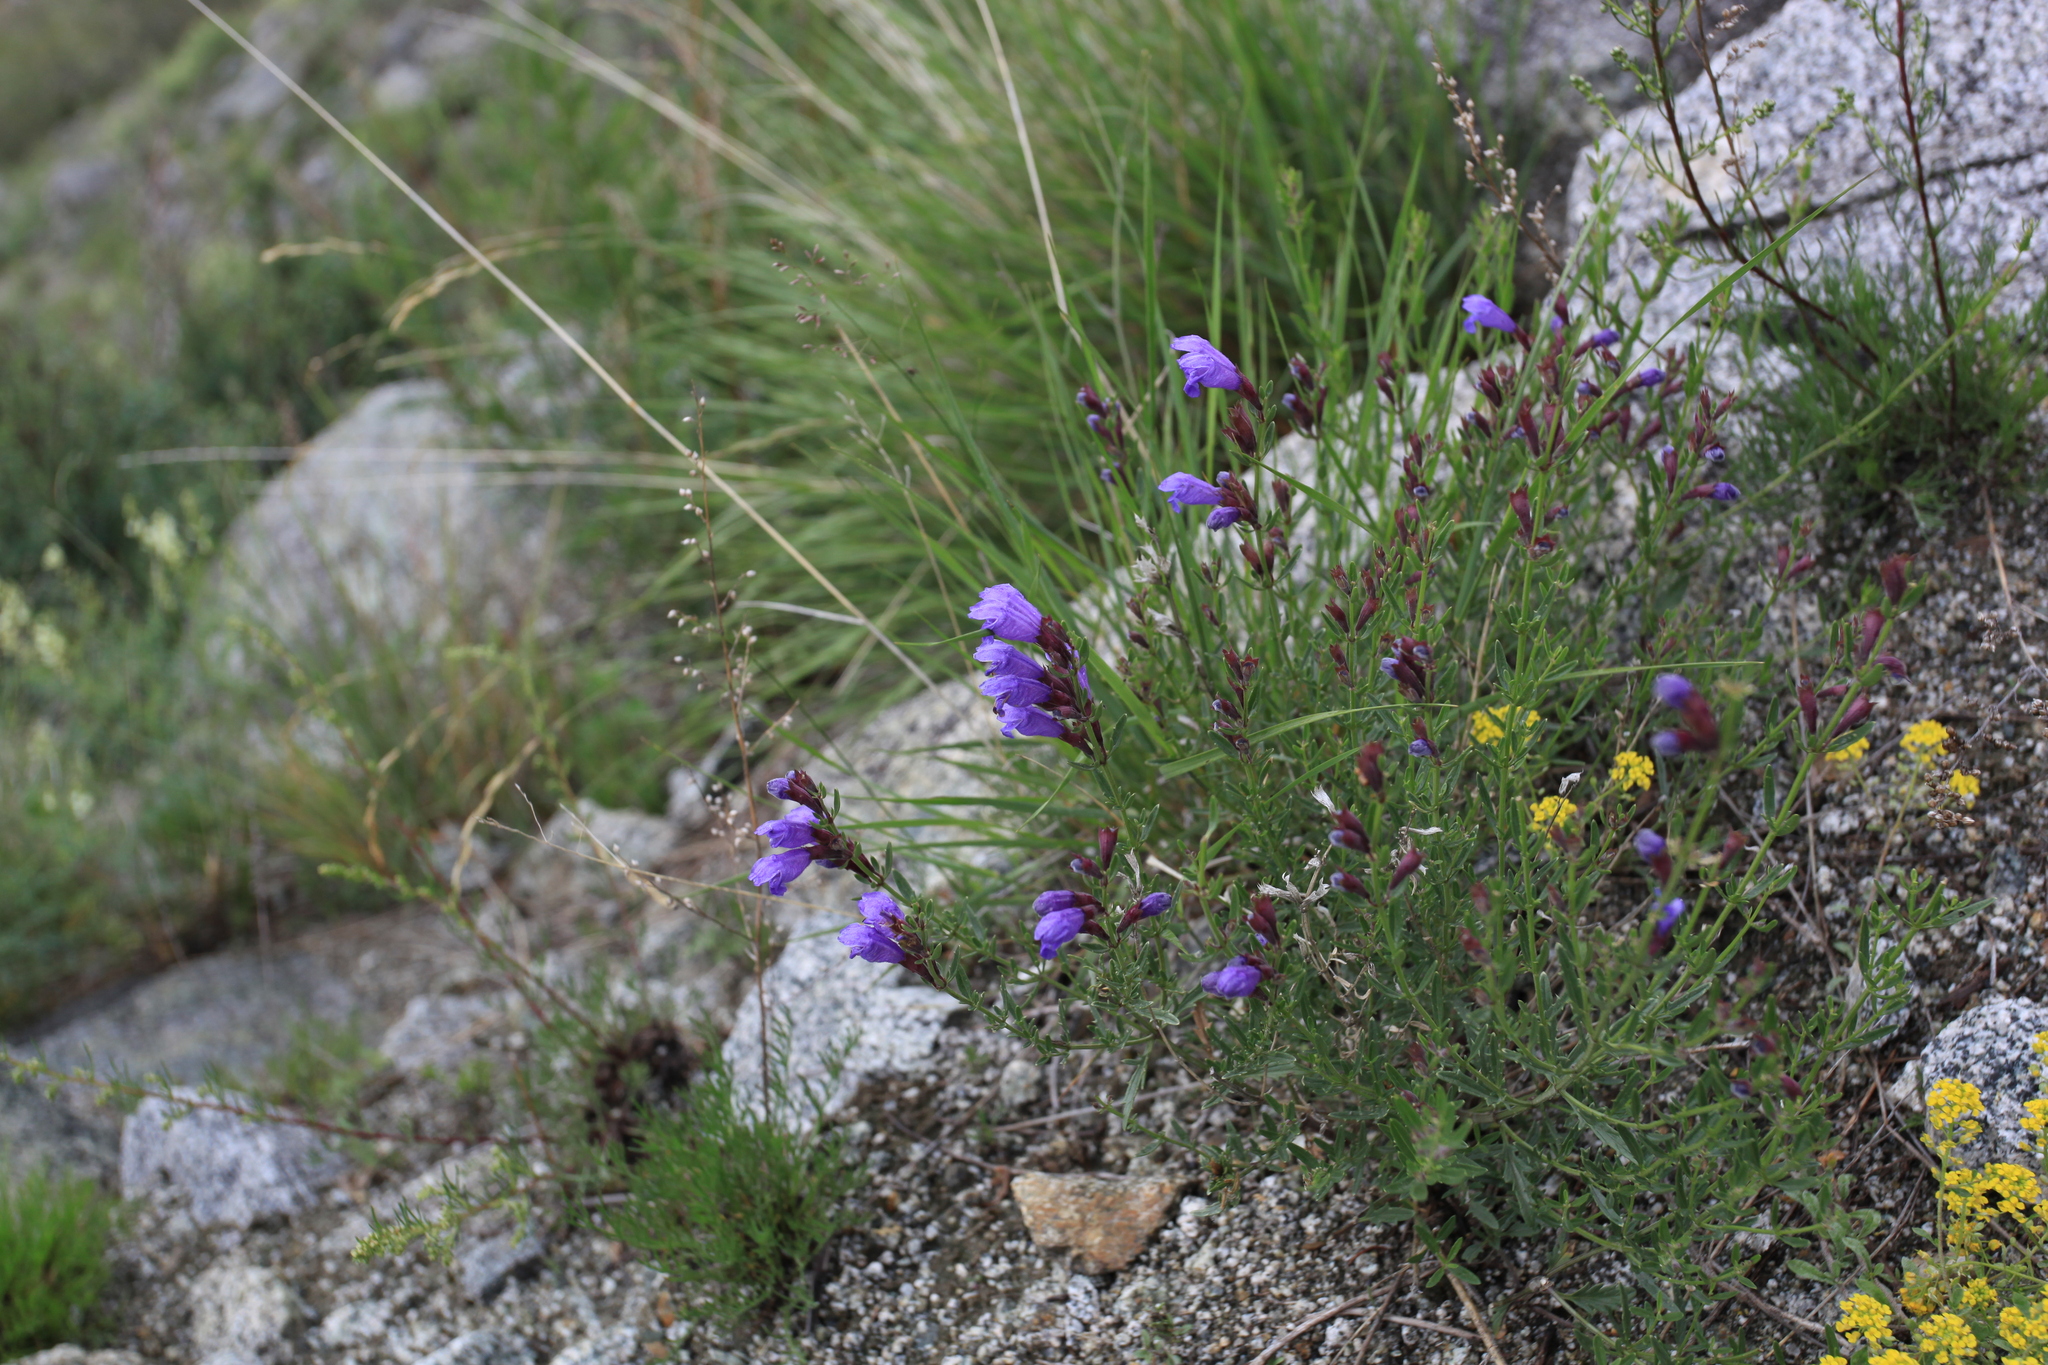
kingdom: Plantae
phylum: Tracheophyta
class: Magnoliopsida
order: Lamiales
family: Lamiaceae
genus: Dracocephalum
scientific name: Dracocephalum peregrinum
